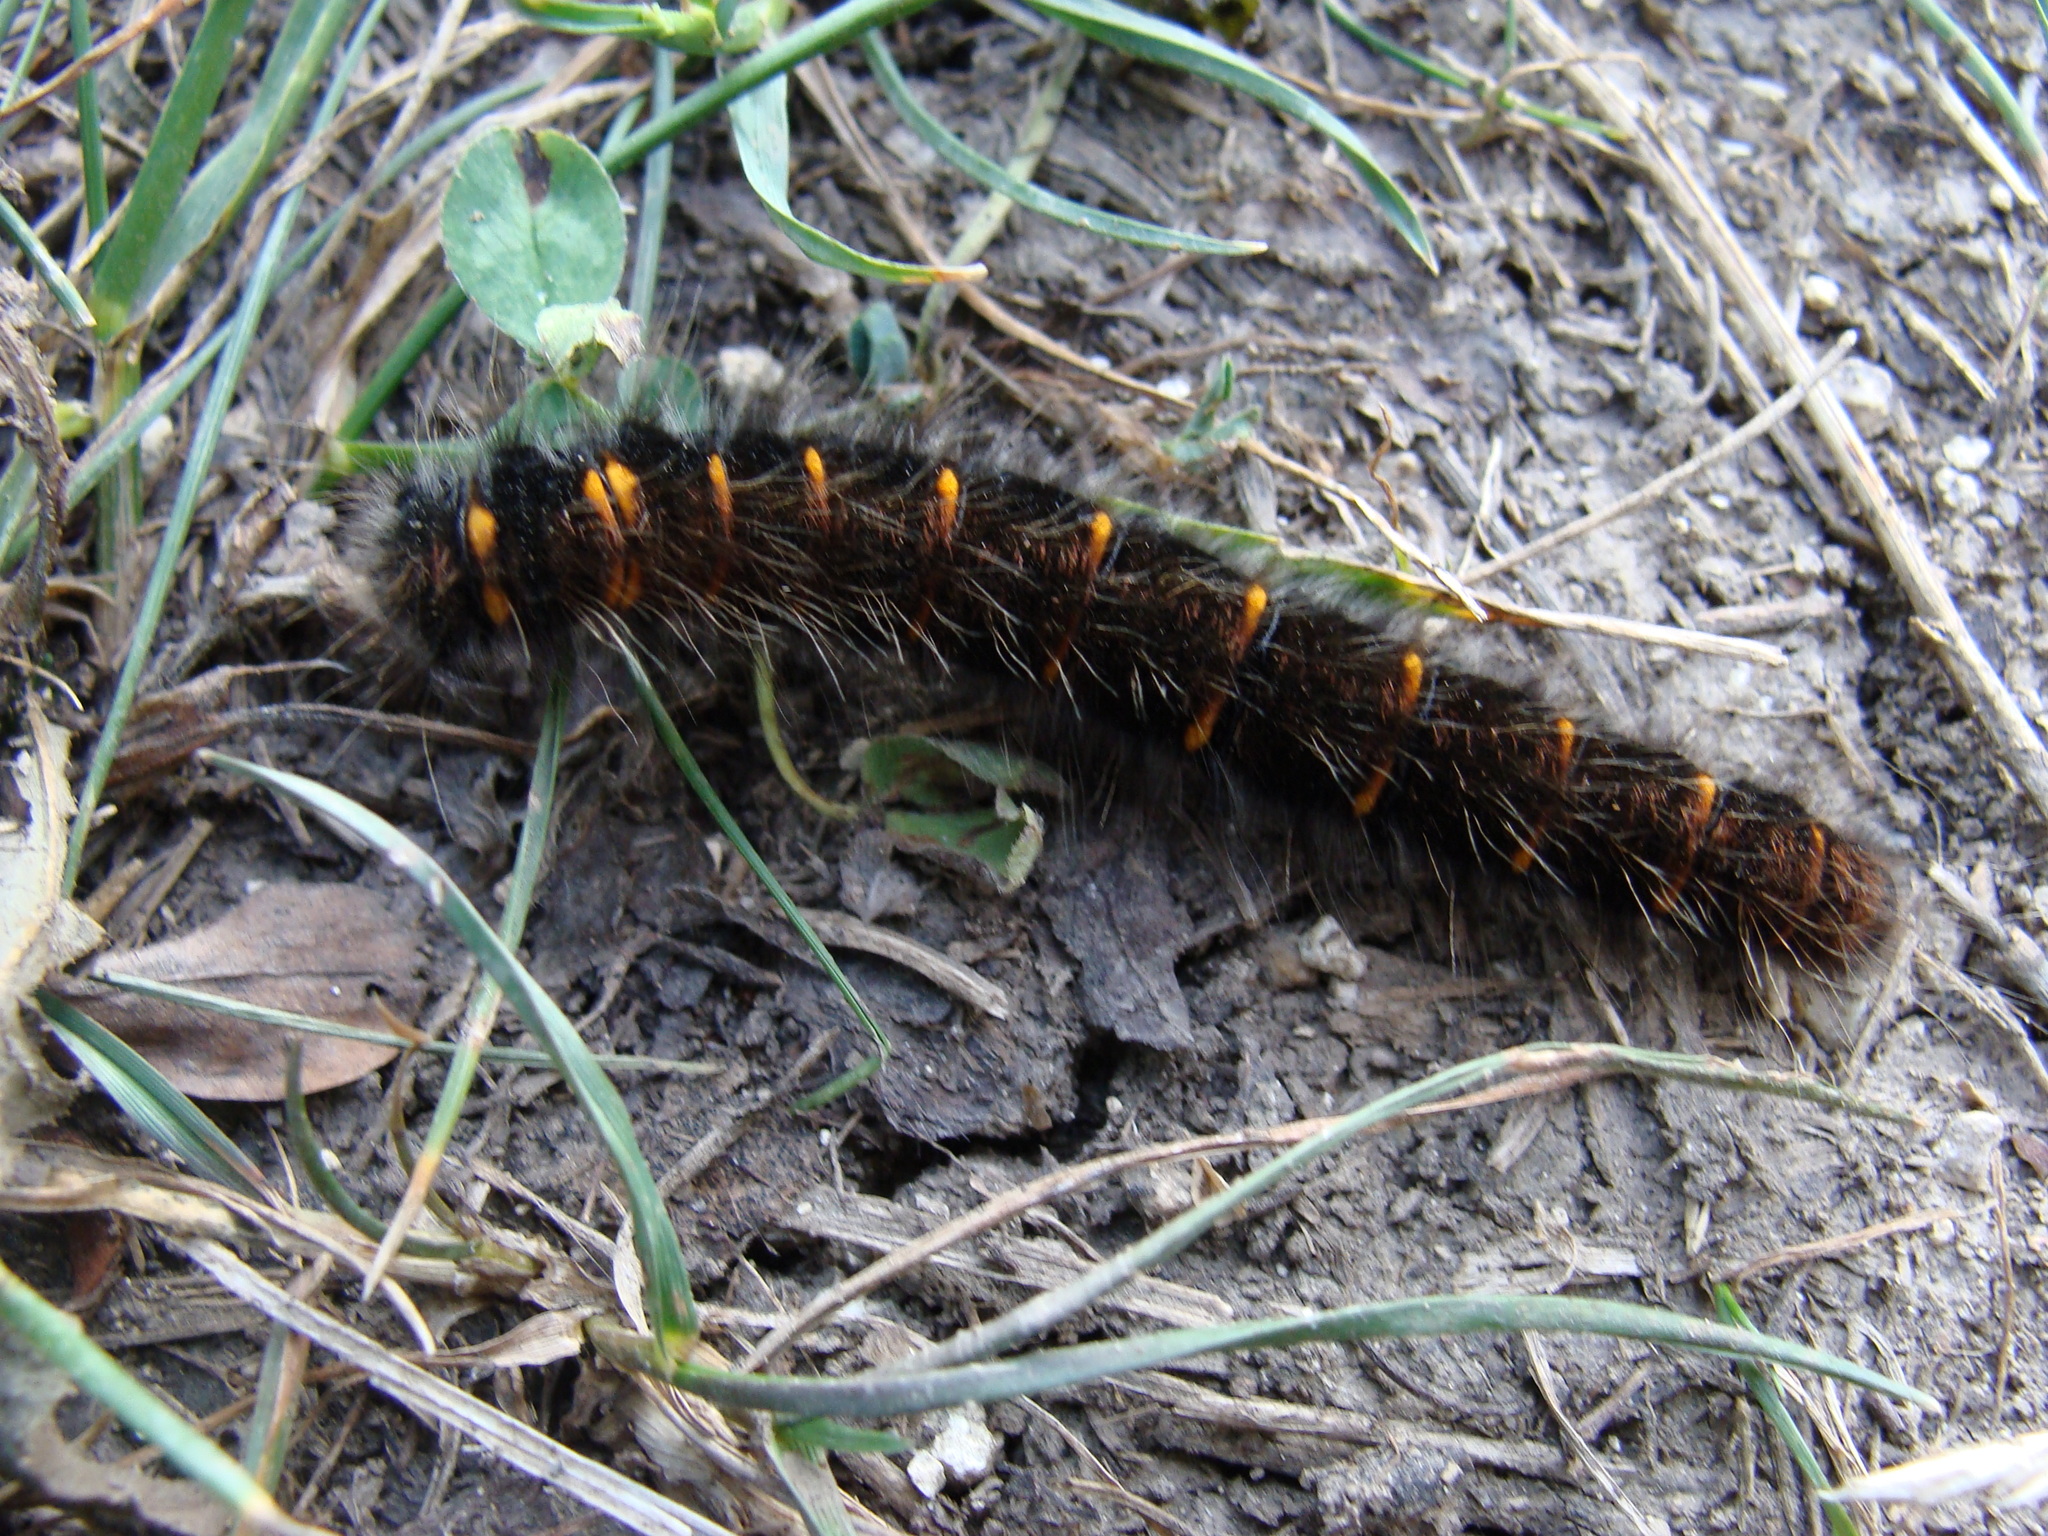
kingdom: Animalia
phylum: Arthropoda
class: Insecta
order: Lepidoptera
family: Lasiocampidae
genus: Macrothylacia
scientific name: Macrothylacia rubi
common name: Fox moth
